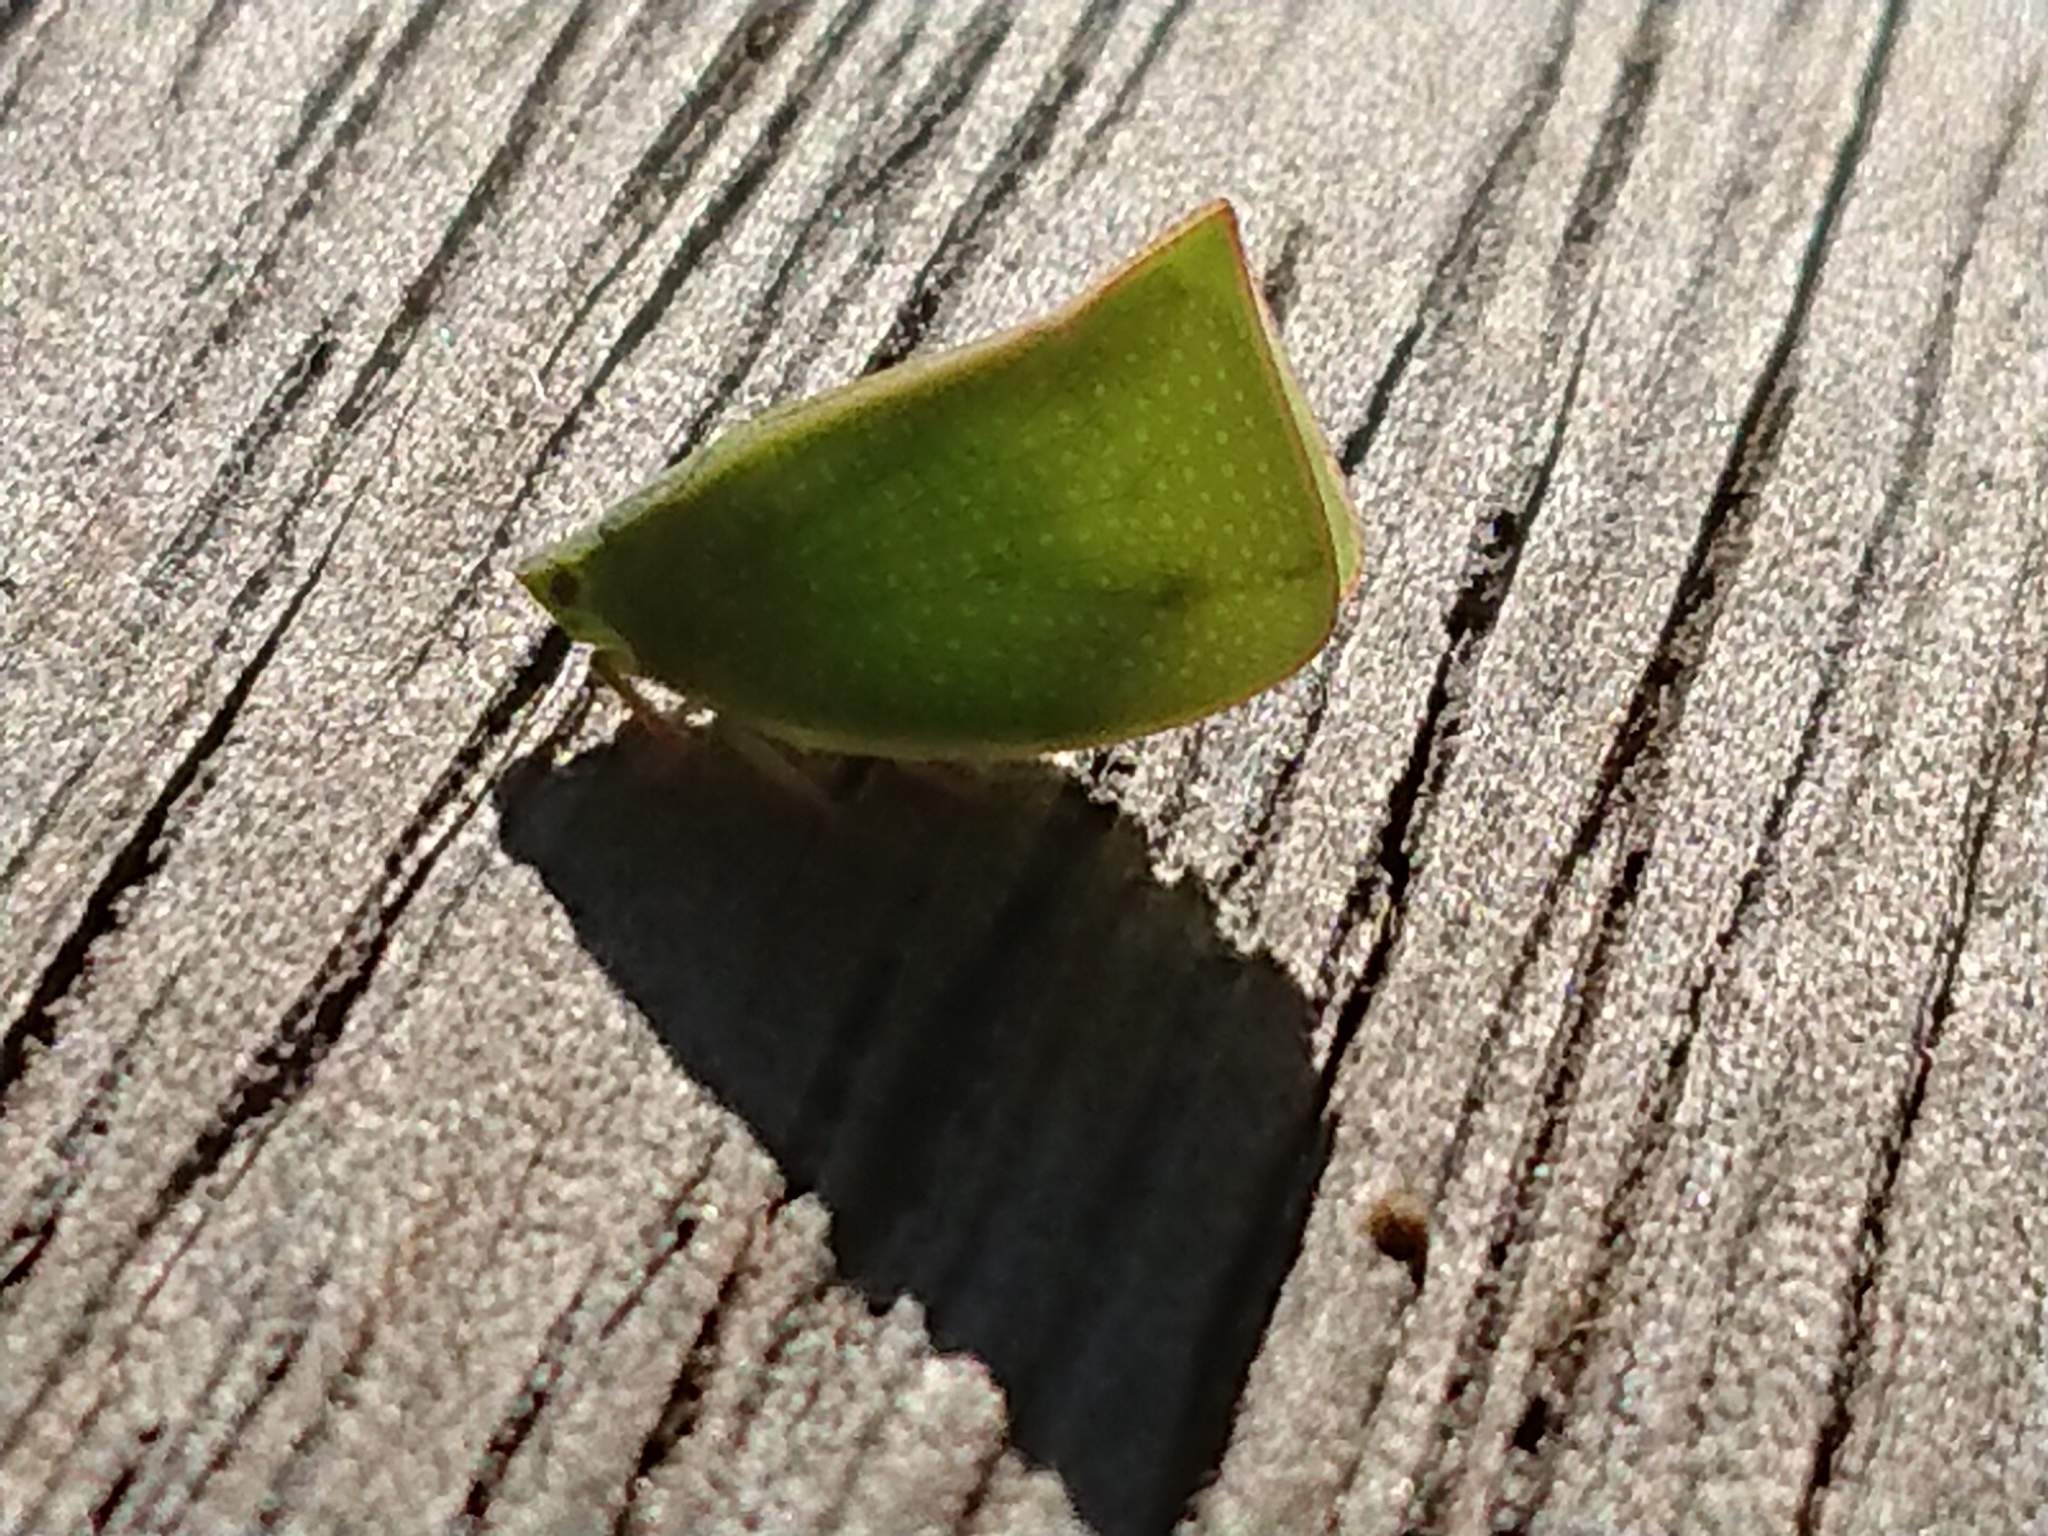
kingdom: Animalia
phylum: Arthropoda
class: Insecta
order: Hemiptera
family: Flatidae
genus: Siphanta
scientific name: Siphanta acuta
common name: Torpedo bug
